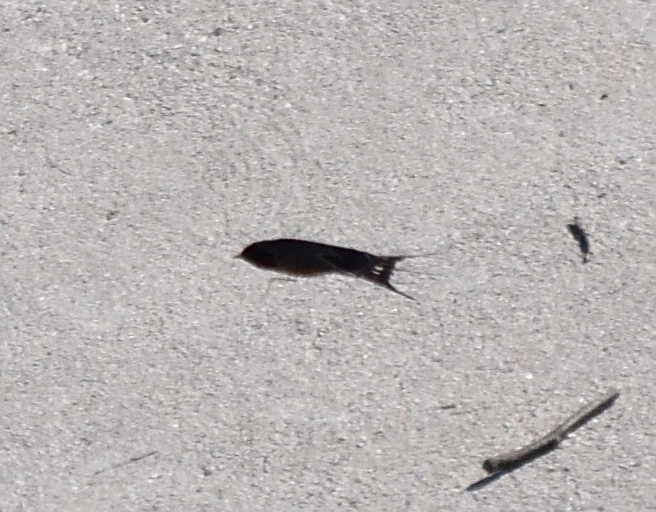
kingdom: Animalia
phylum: Chordata
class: Aves
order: Passeriformes
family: Hirundinidae
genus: Hirundo
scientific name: Hirundo rustica
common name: Barn swallow
